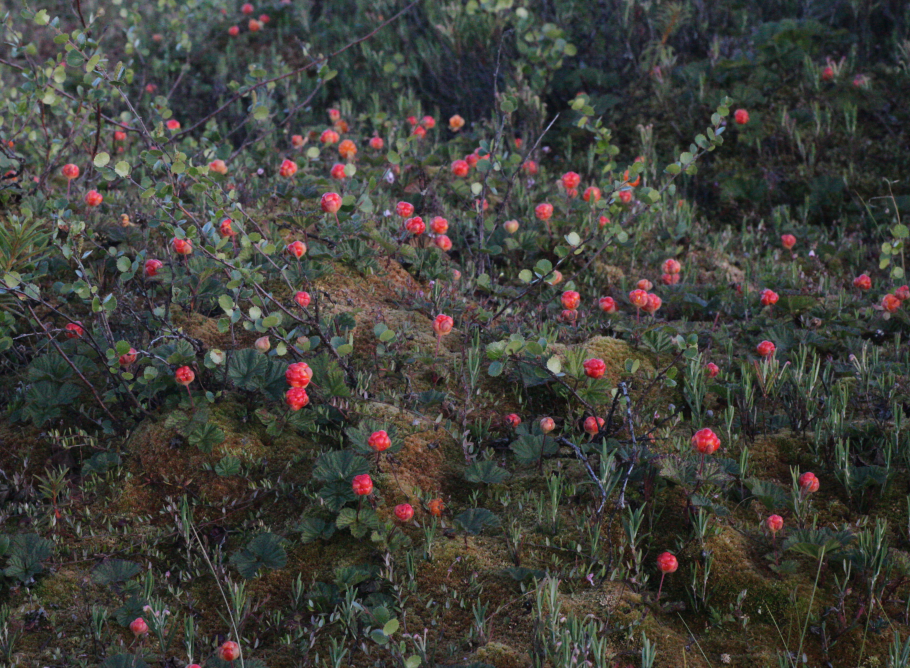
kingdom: Plantae
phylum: Tracheophyta
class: Magnoliopsida
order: Rosales
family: Rosaceae
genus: Rubus
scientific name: Rubus chamaemorus
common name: Cloudberry
